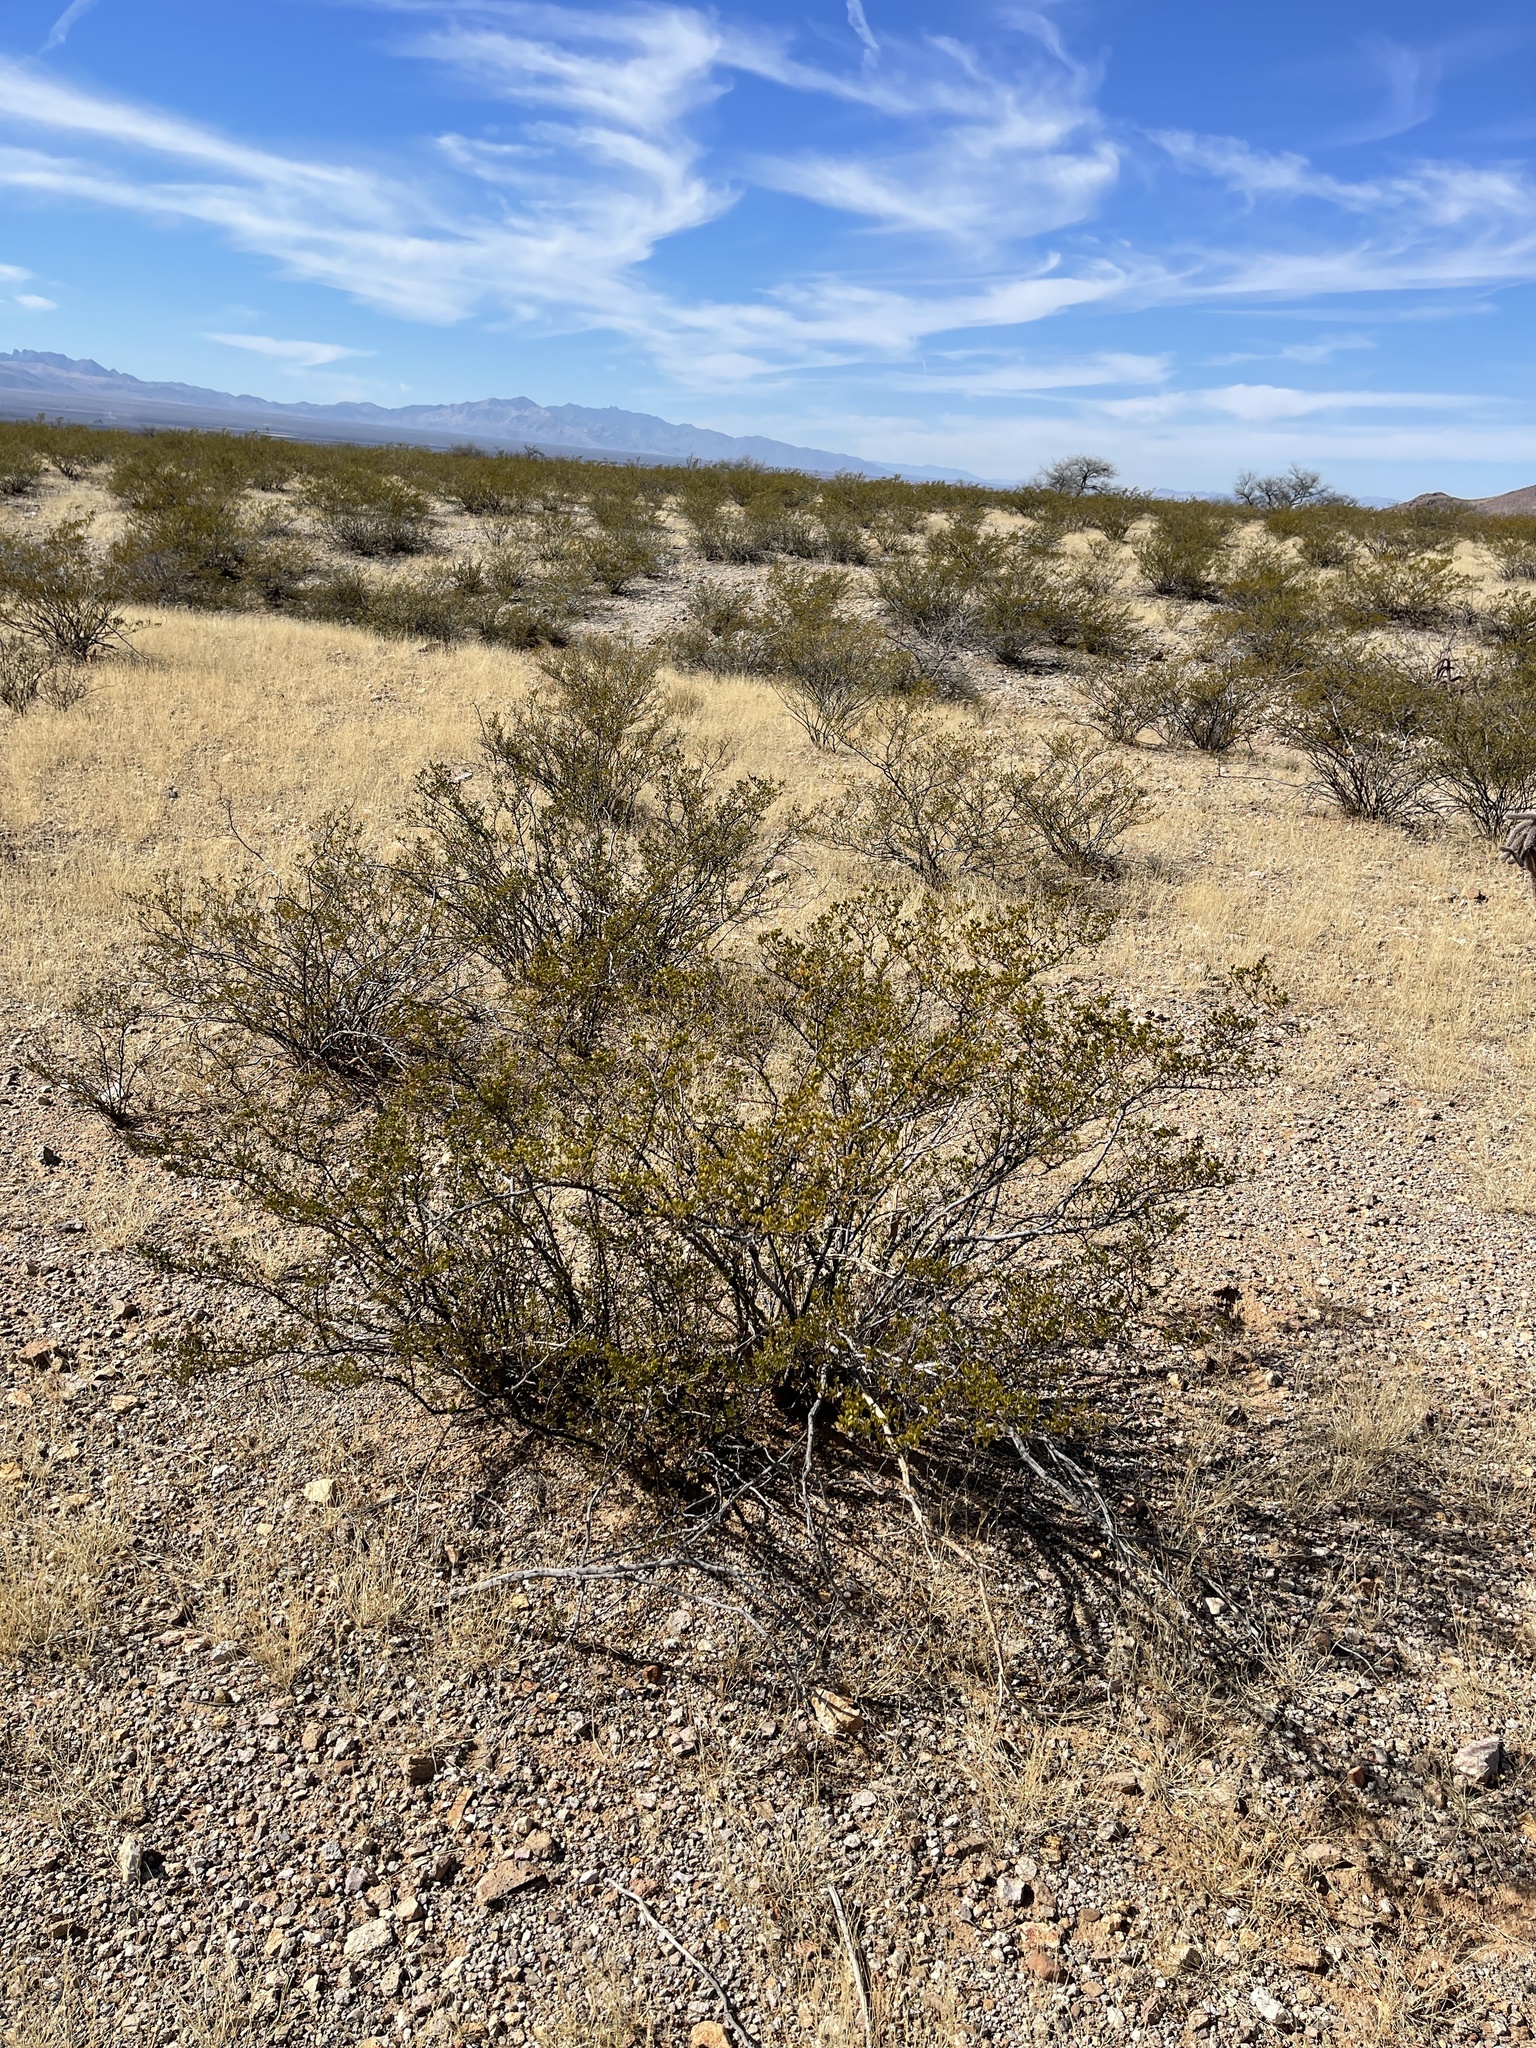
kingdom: Plantae
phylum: Tracheophyta
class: Magnoliopsida
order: Zygophyllales
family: Zygophyllaceae
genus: Larrea
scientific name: Larrea tridentata
